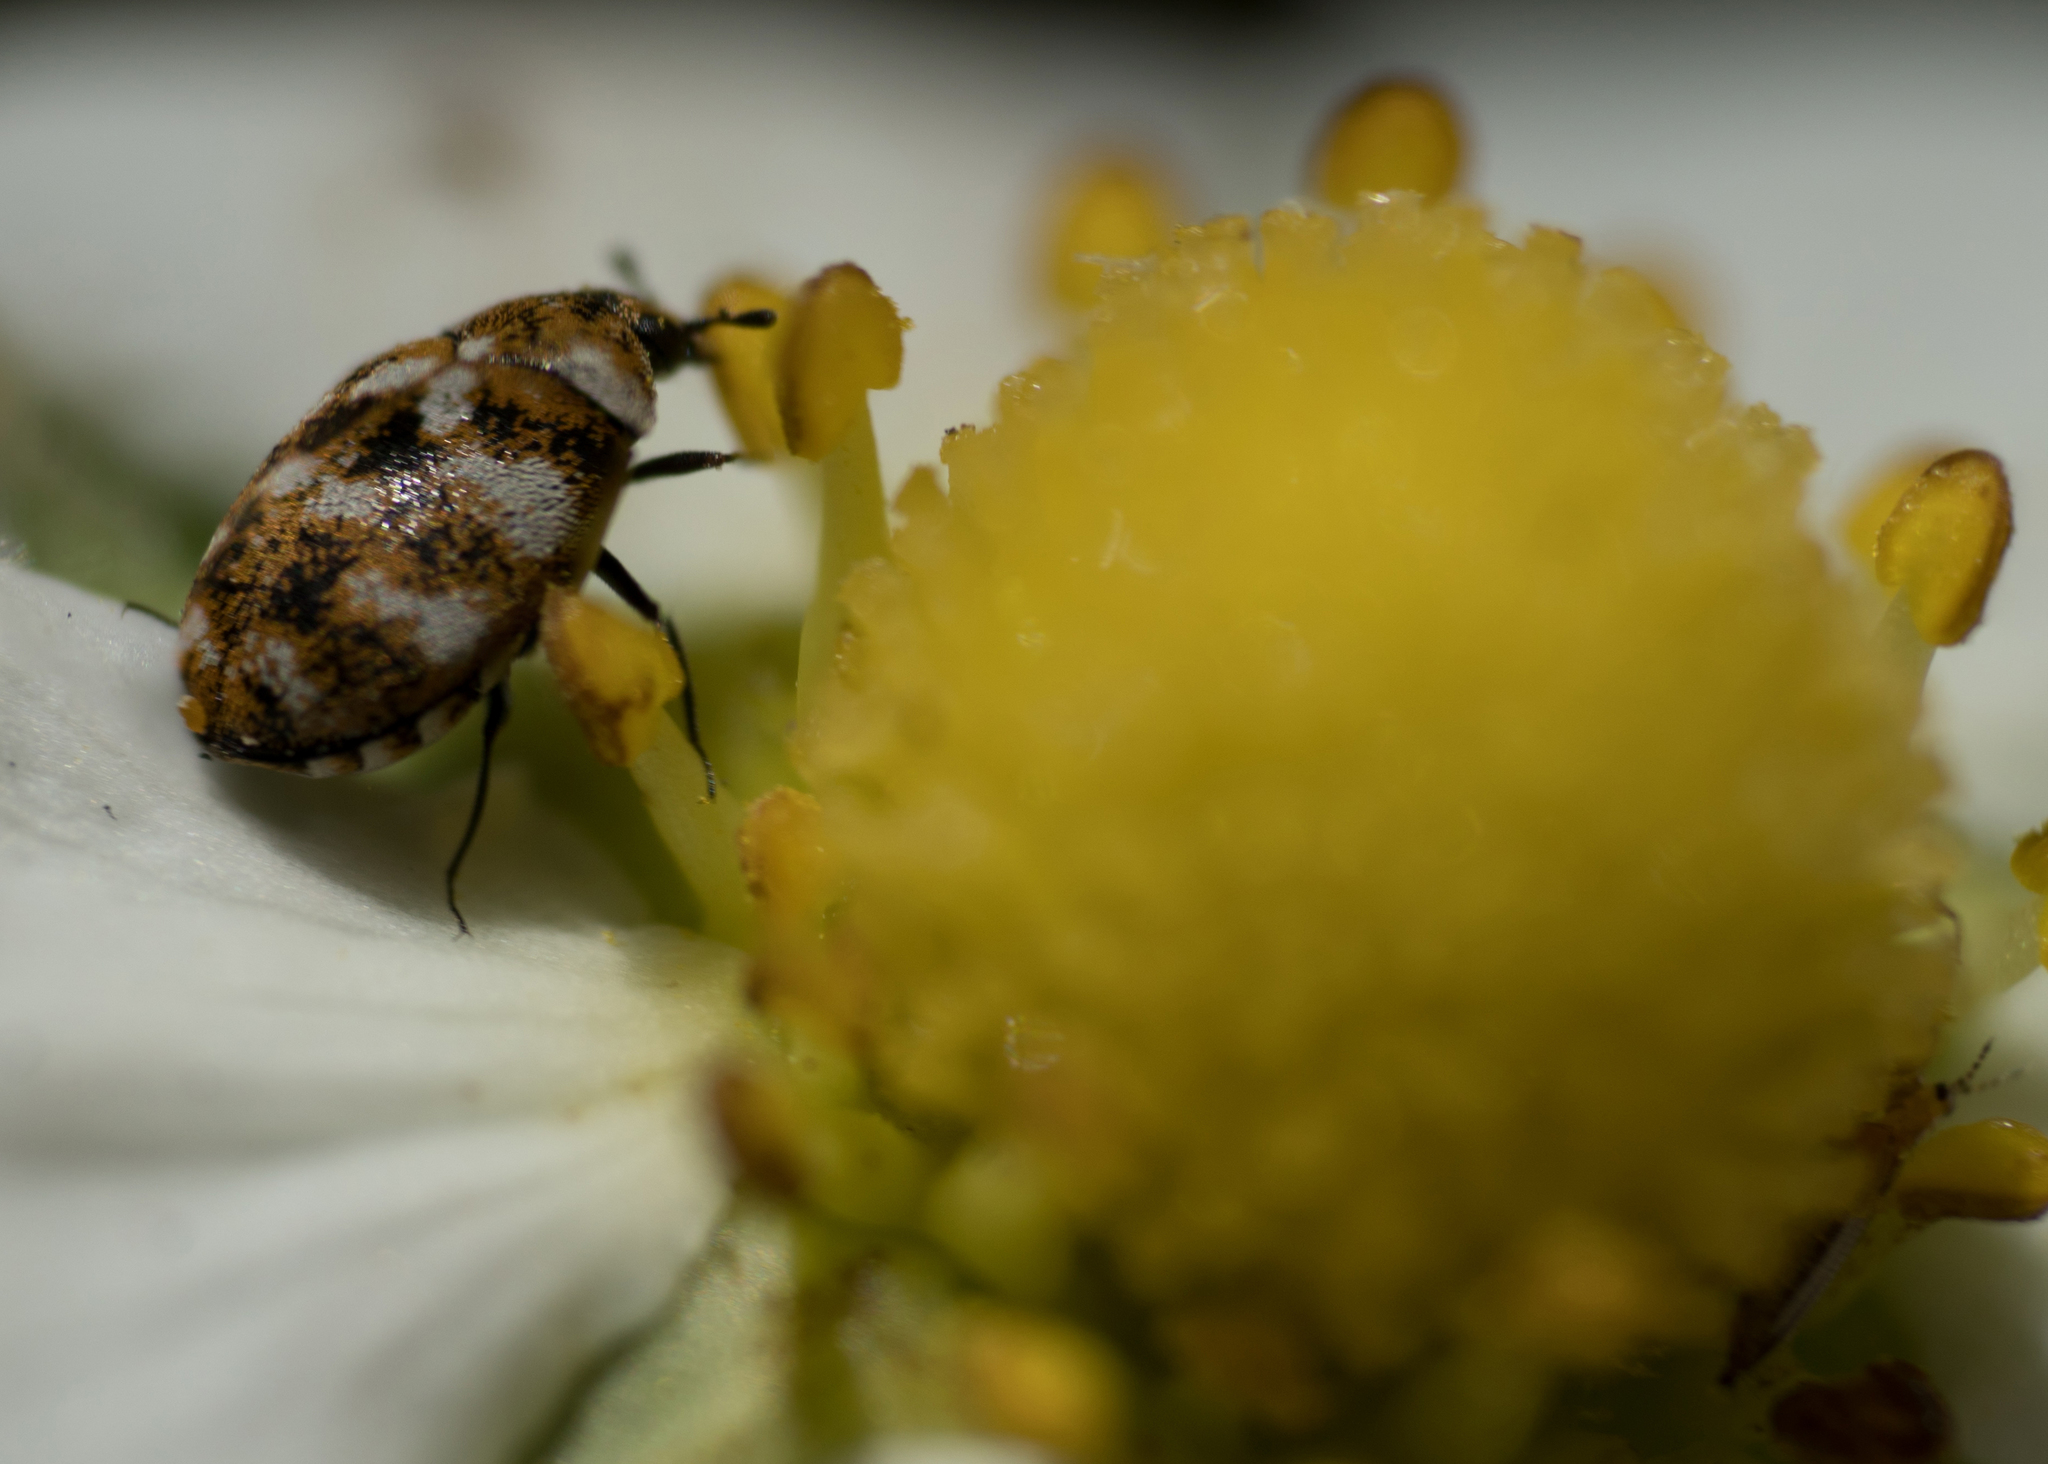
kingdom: Animalia
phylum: Arthropoda
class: Insecta
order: Coleoptera
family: Dermestidae
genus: Anthrenus
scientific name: Anthrenus verbasci
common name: Varied carpet beetle
